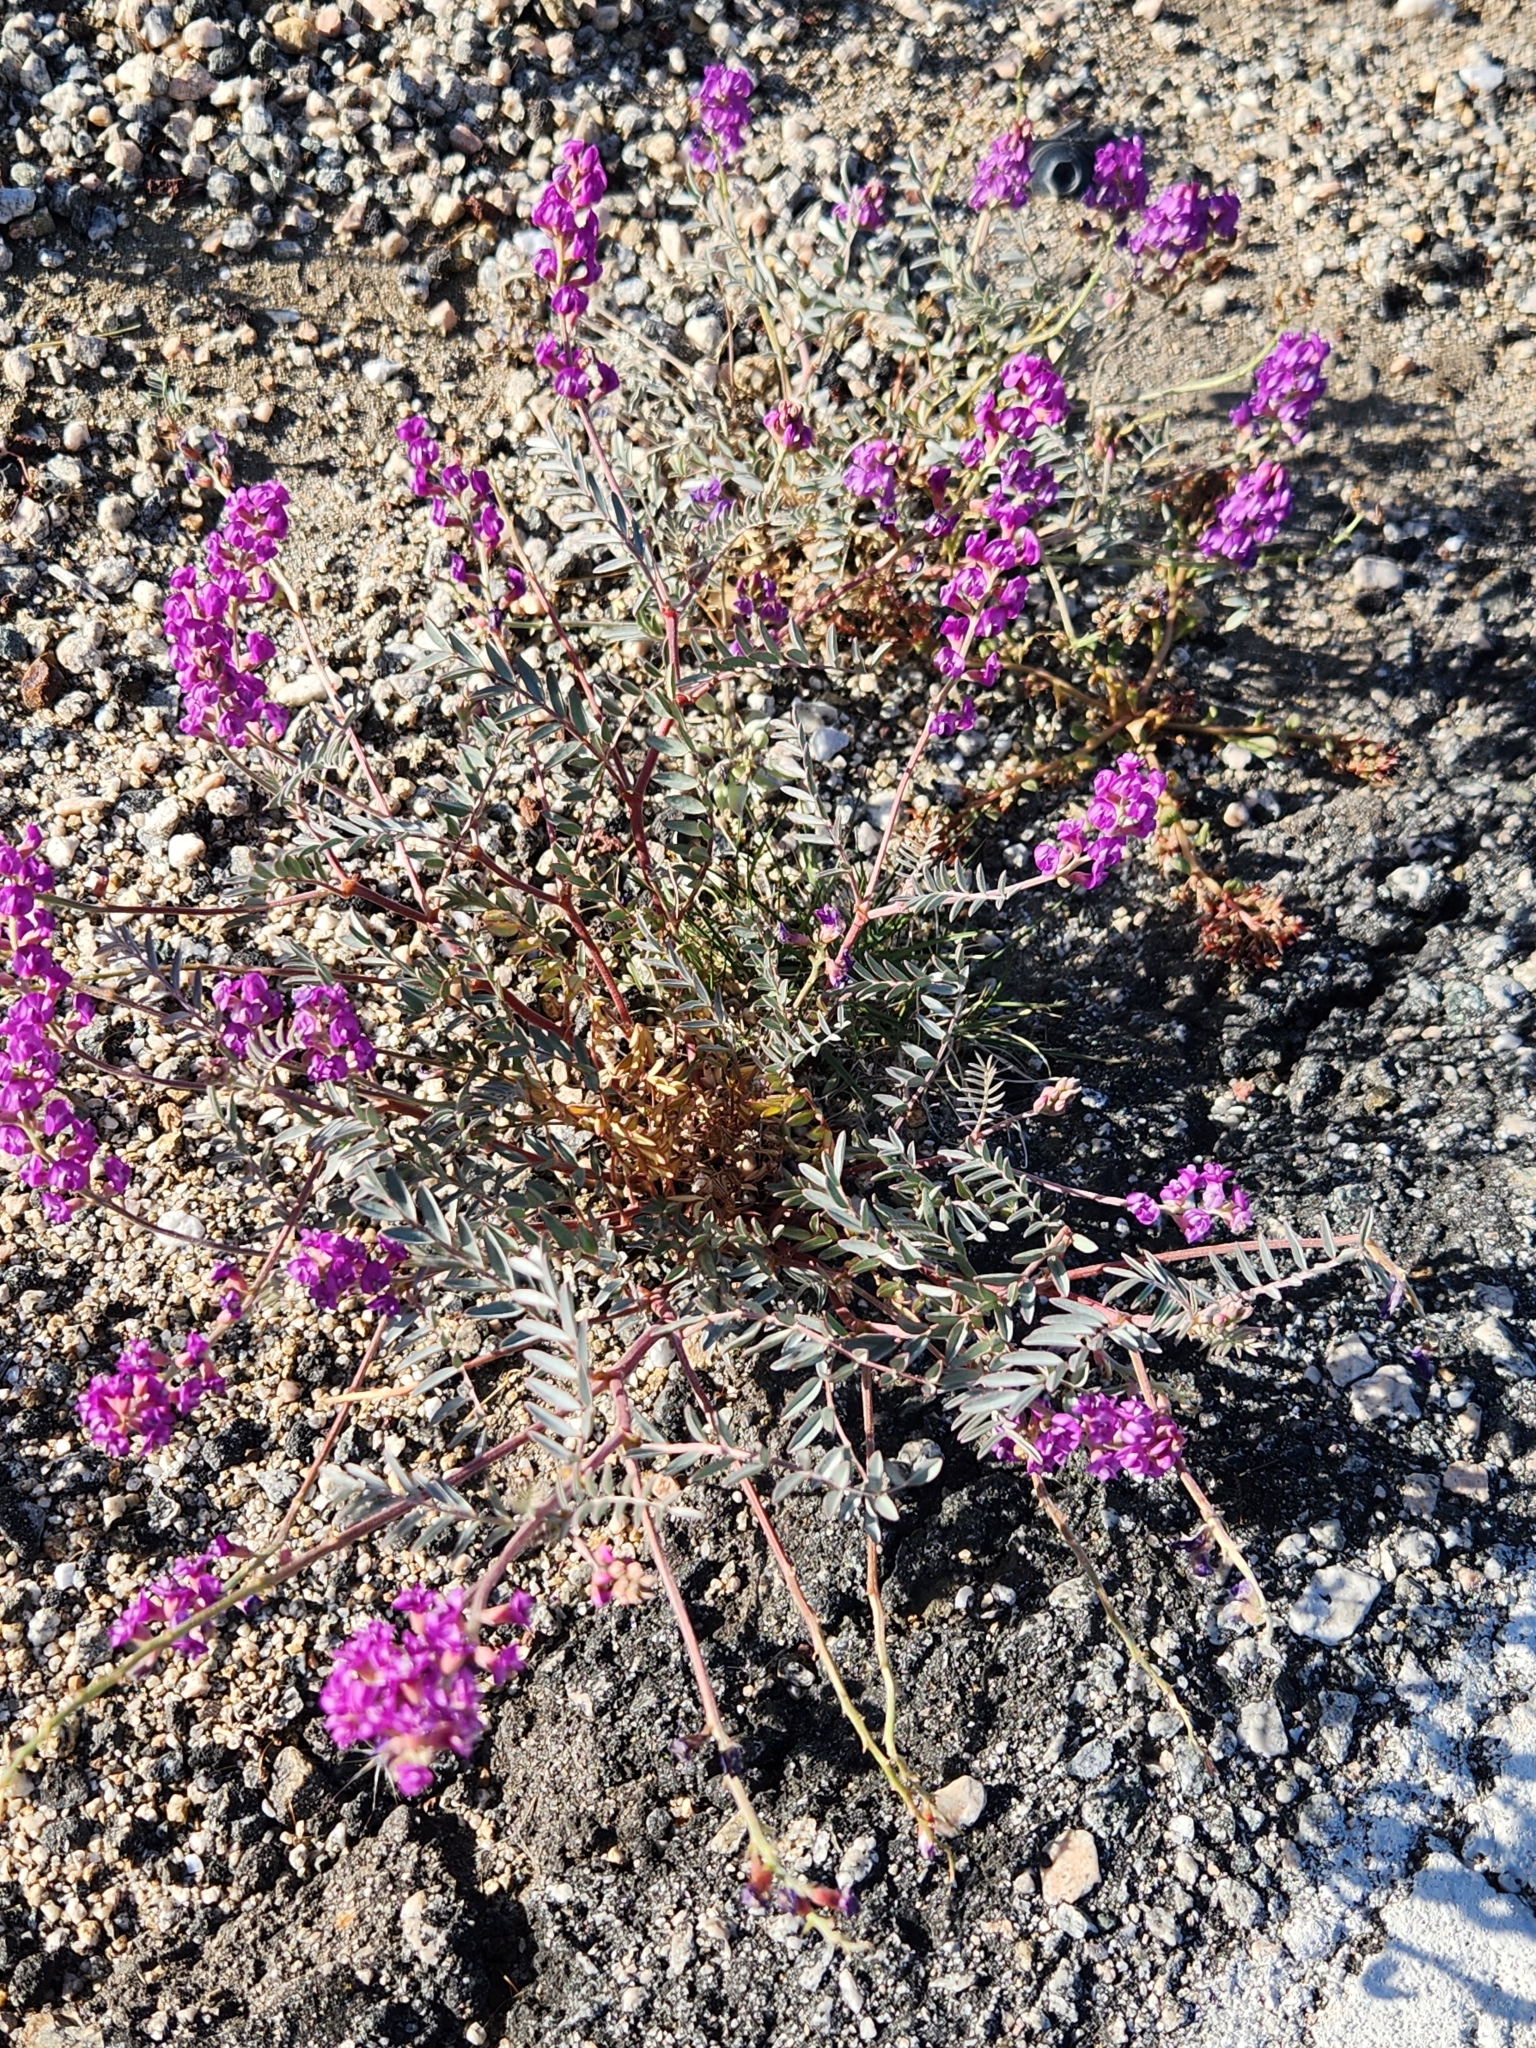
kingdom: Plantae
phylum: Tracheophyta
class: Magnoliopsida
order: Fabales
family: Fabaceae
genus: Astragalus
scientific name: Astragalus palmeri
